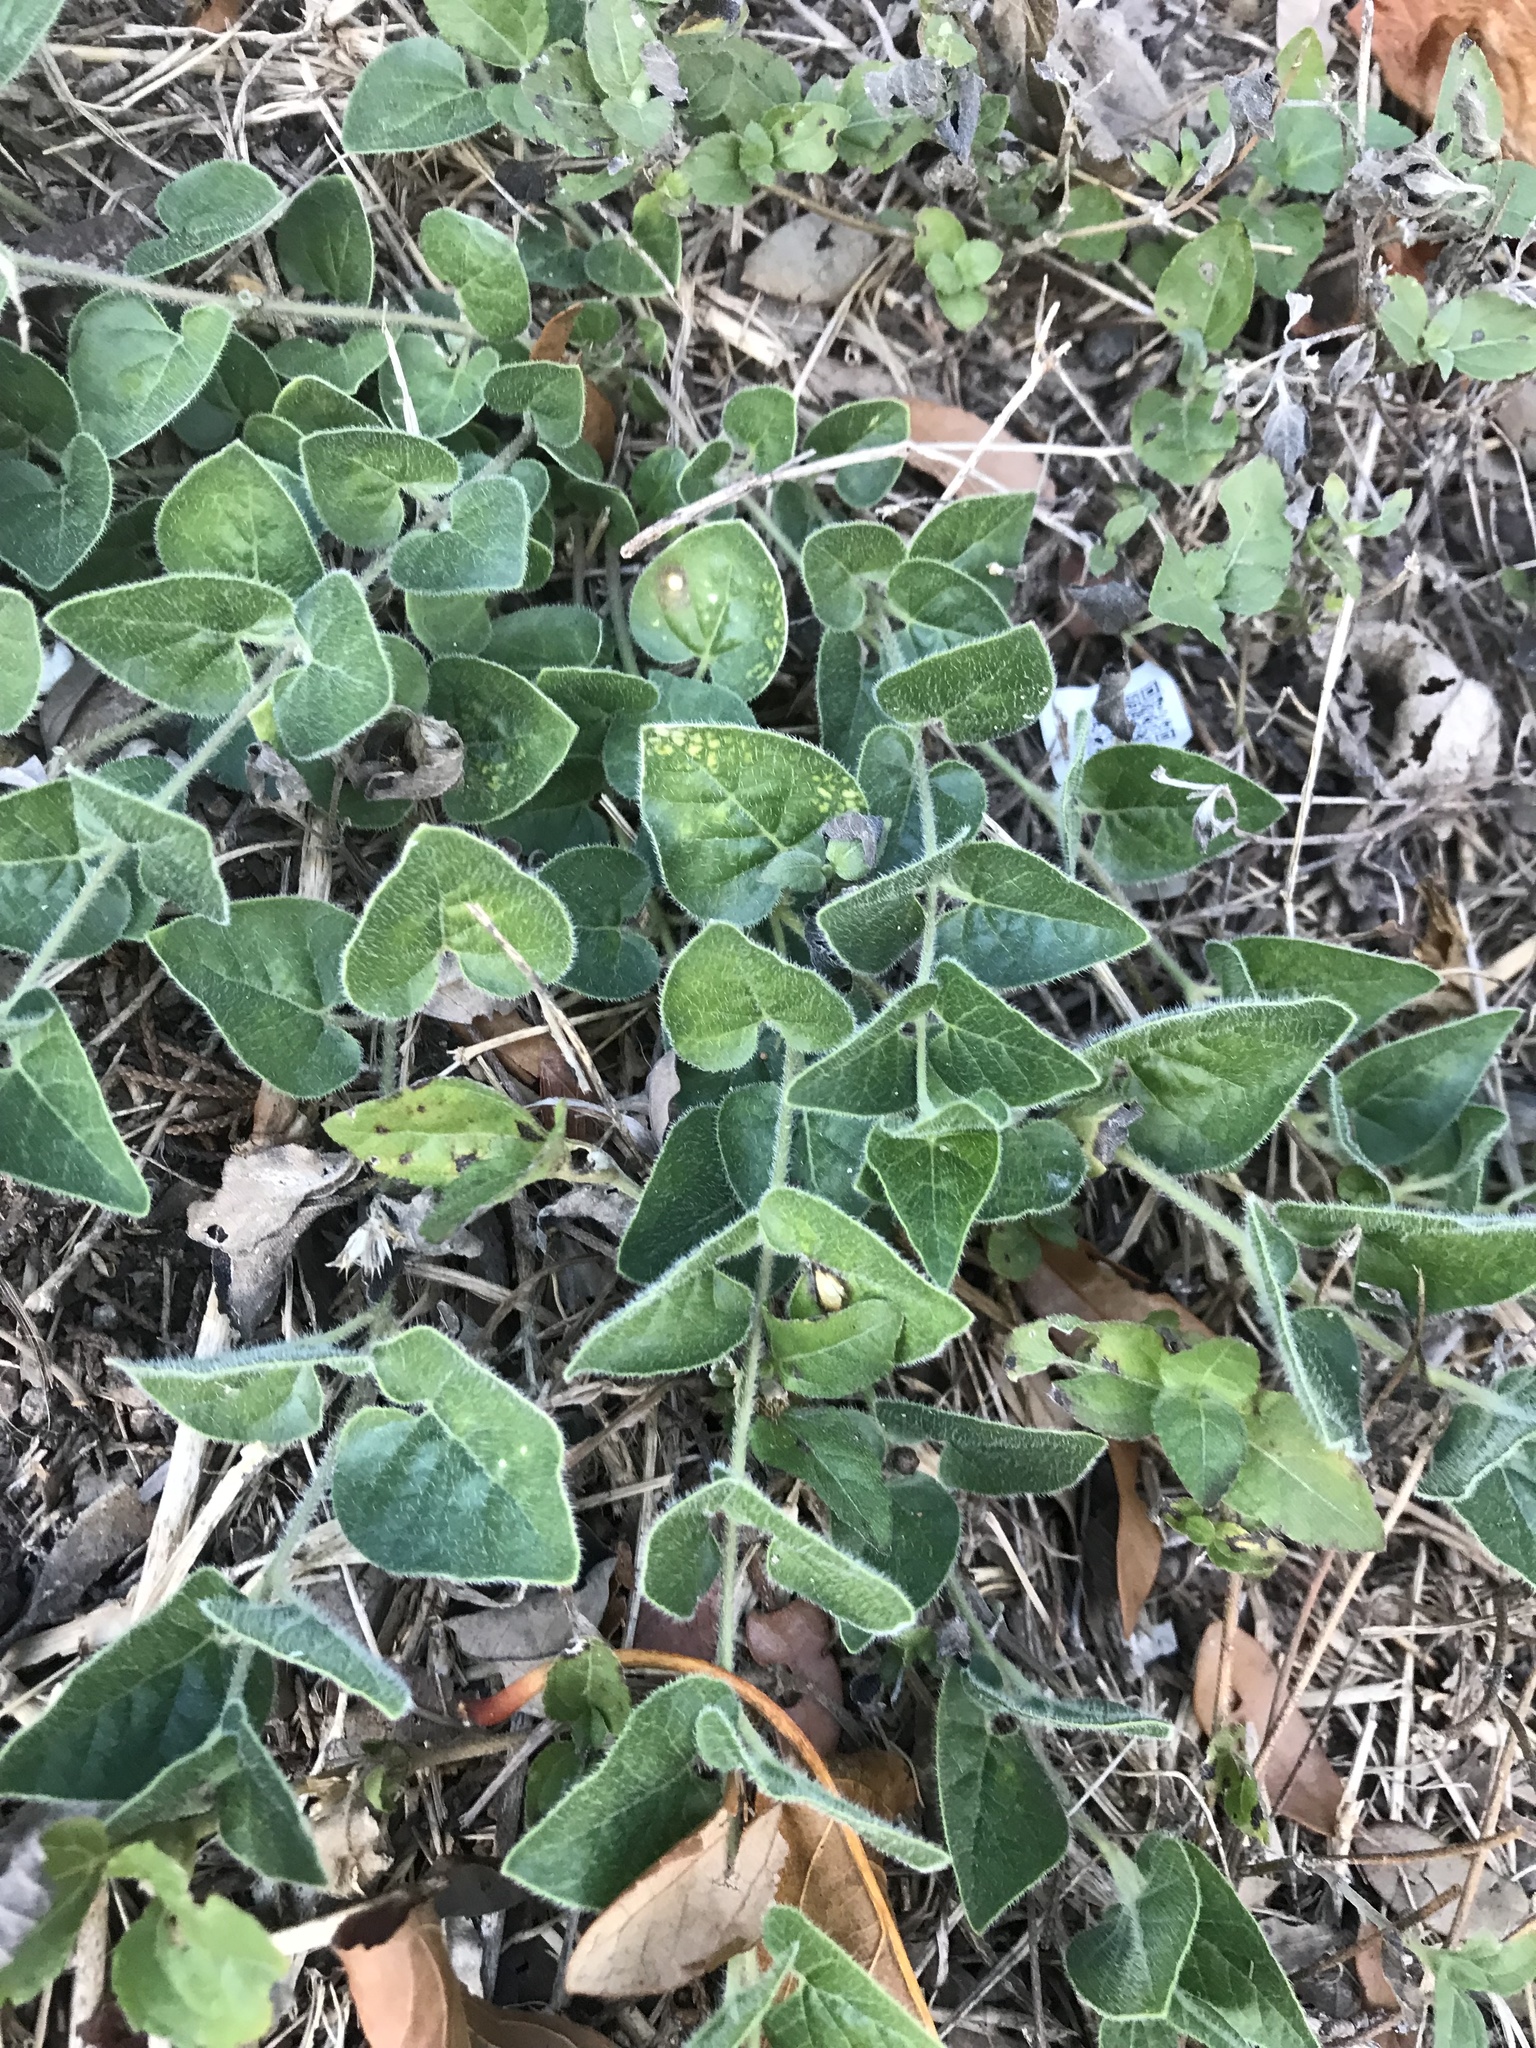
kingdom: Plantae
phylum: Tracheophyta
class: Magnoliopsida
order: Gentianales
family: Apocynaceae
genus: Chthamalia
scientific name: Chthamalia biflora
